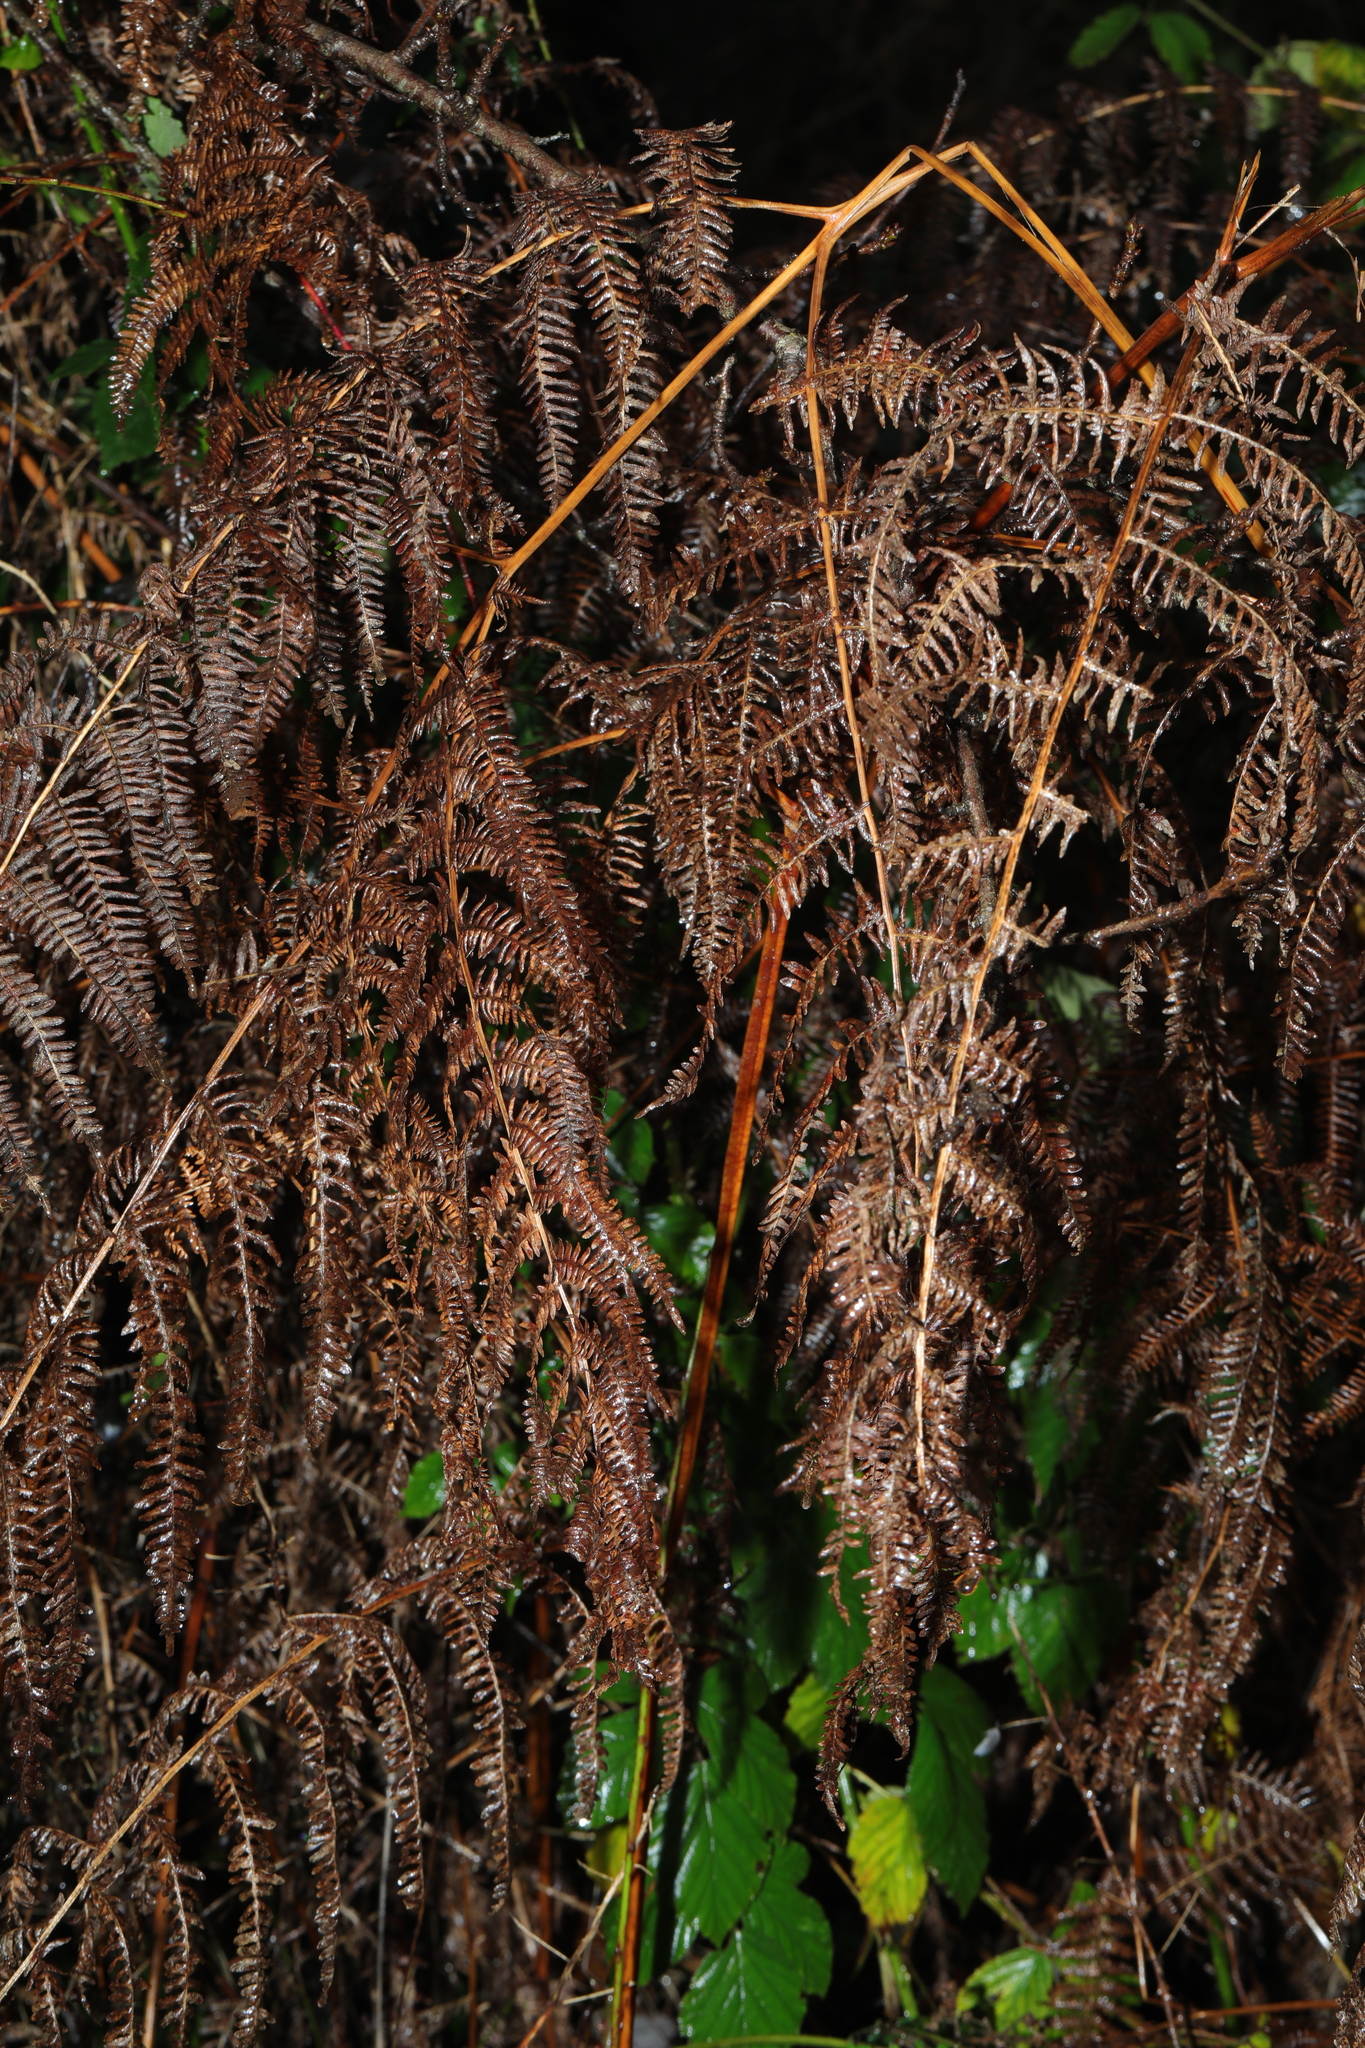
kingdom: Plantae
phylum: Tracheophyta
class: Polypodiopsida
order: Polypodiales
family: Dennstaedtiaceae
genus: Pteridium
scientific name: Pteridium aquilinum
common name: Bracken
